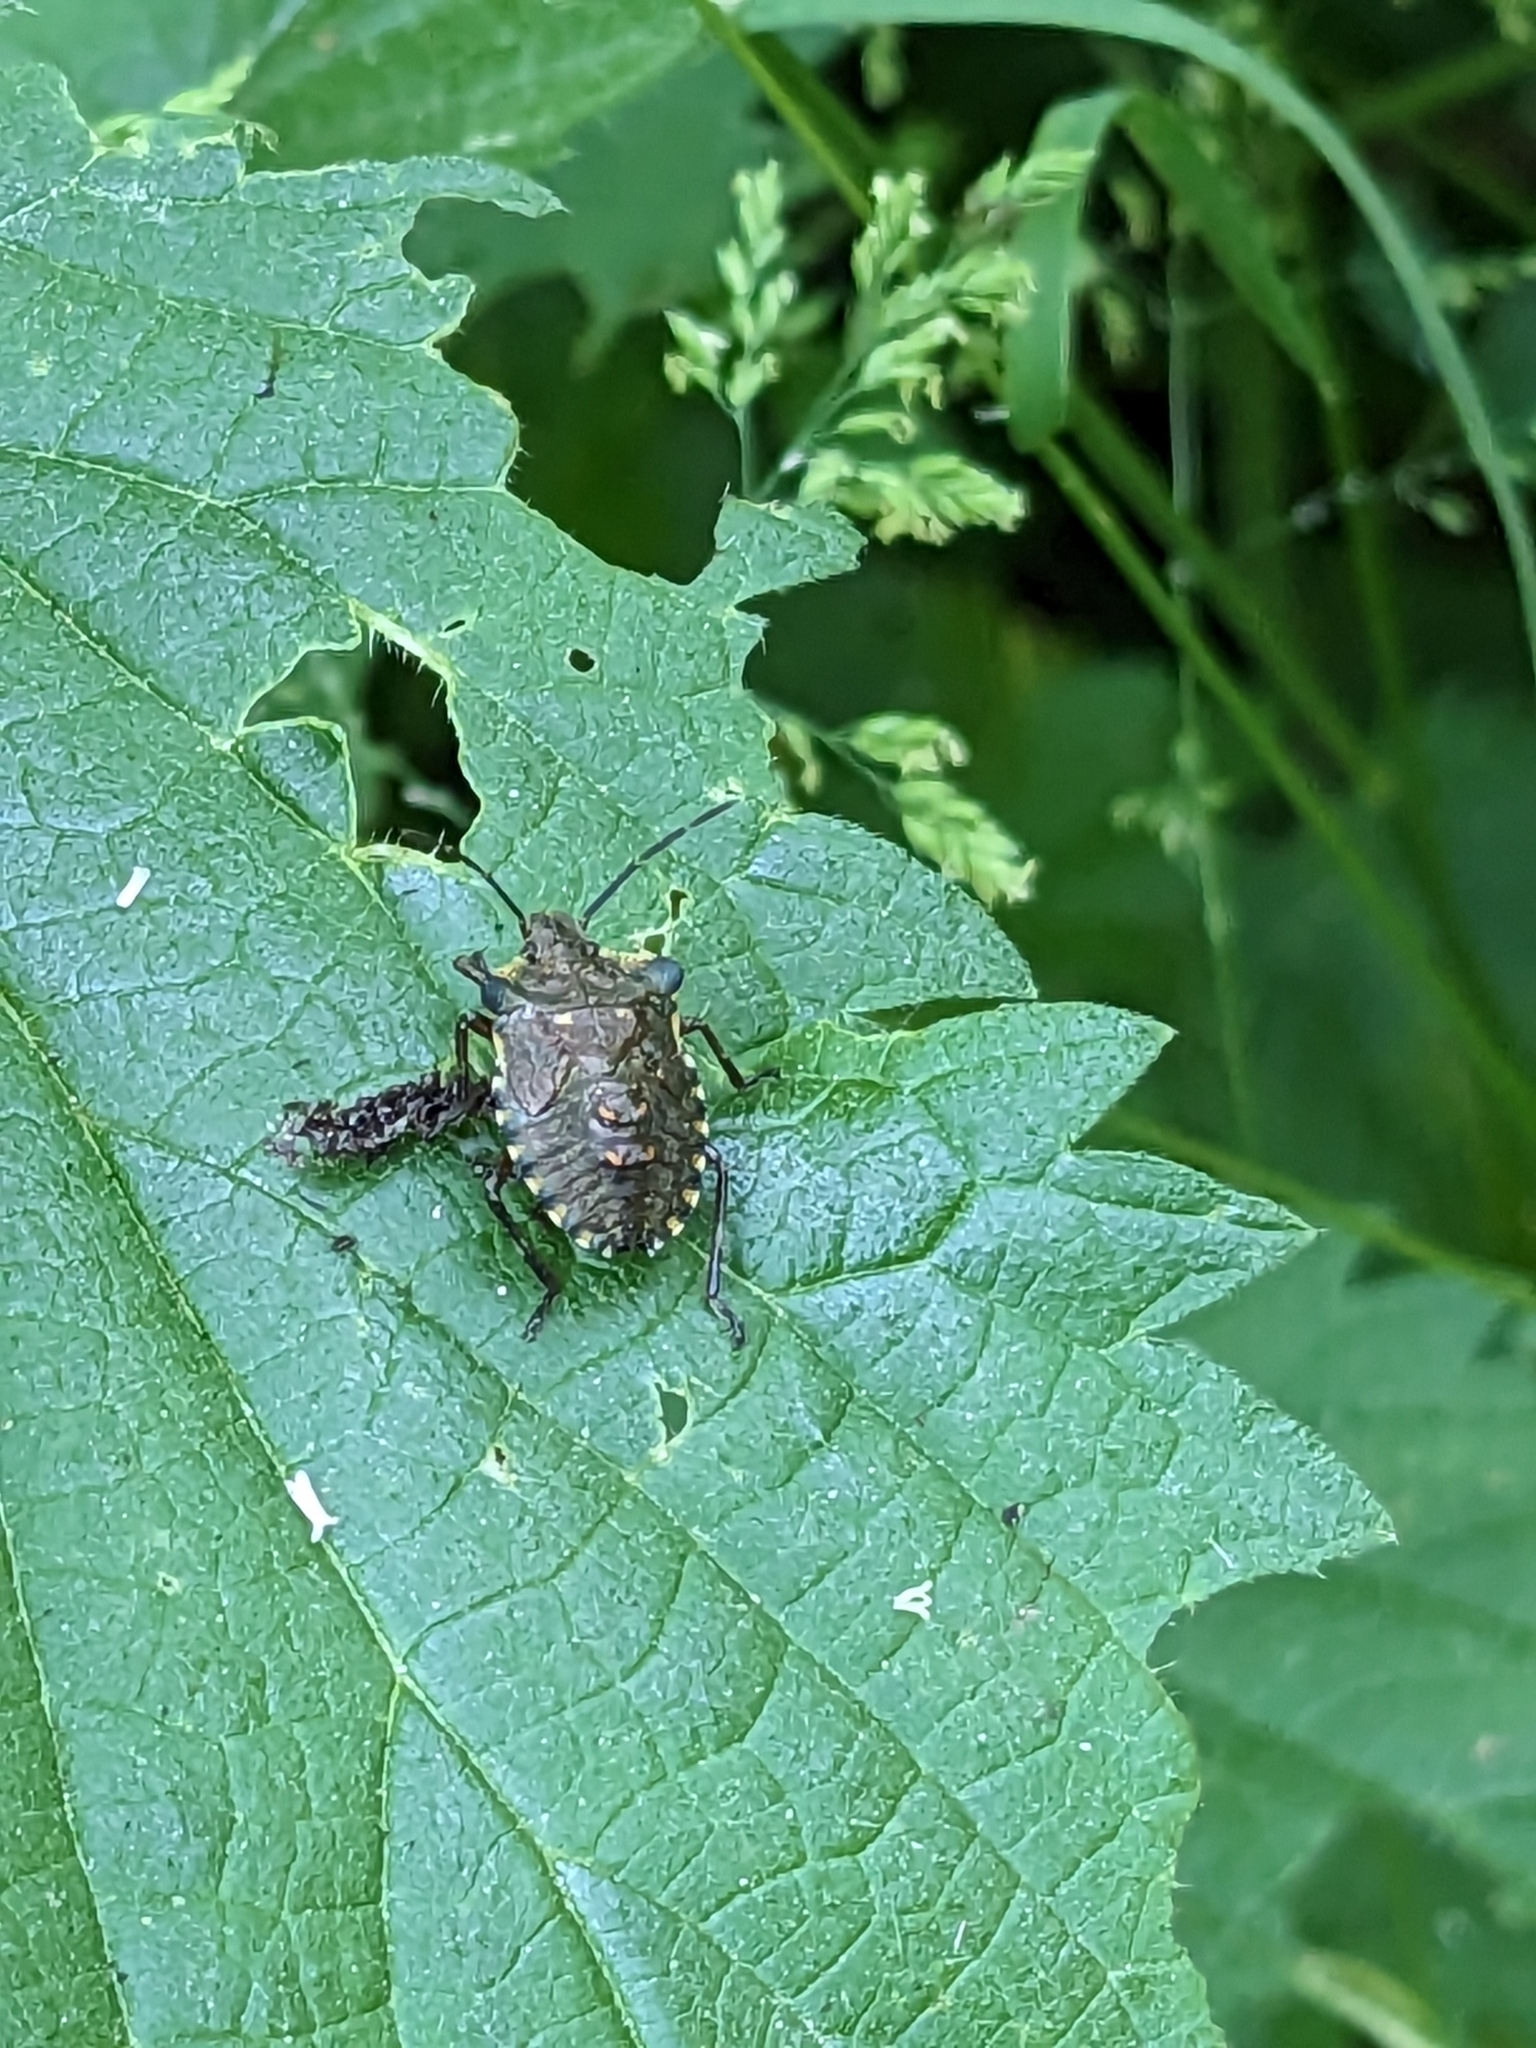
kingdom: Animalia
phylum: Arthropoda
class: Insecta
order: Hemiptera
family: Pentatomidae
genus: Pentatoma
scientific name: Pentatoma rufipes
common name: Forest bug
